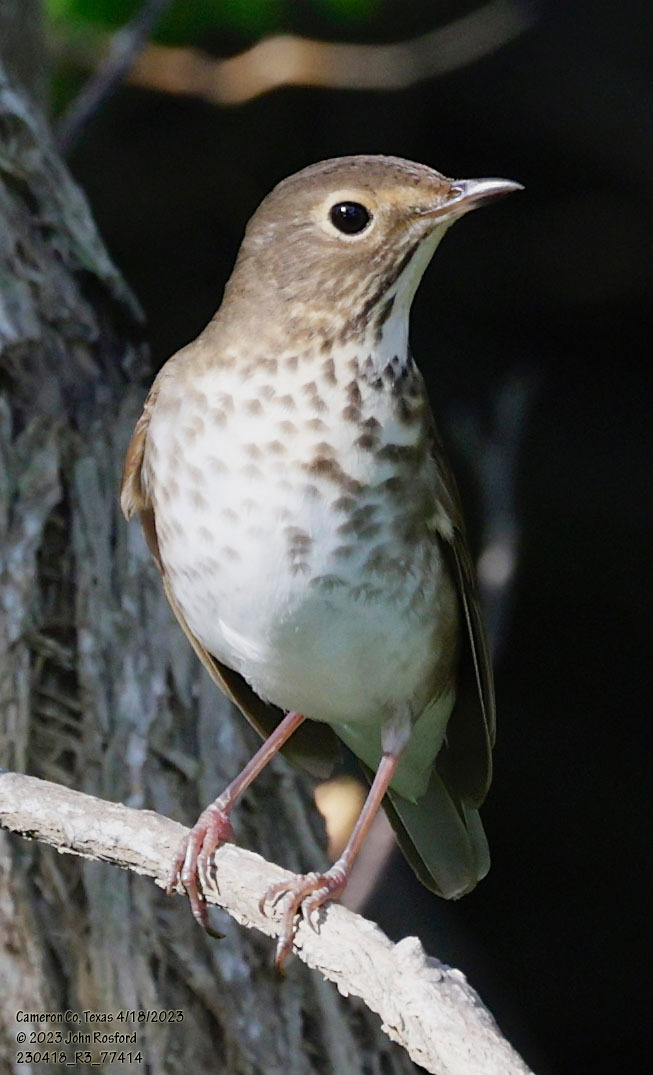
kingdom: Animalia
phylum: Chordata
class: Aves
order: Passeriformes
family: Turdidae
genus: Catharus
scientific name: Catharus ustulatus
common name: Swainson's thrush
